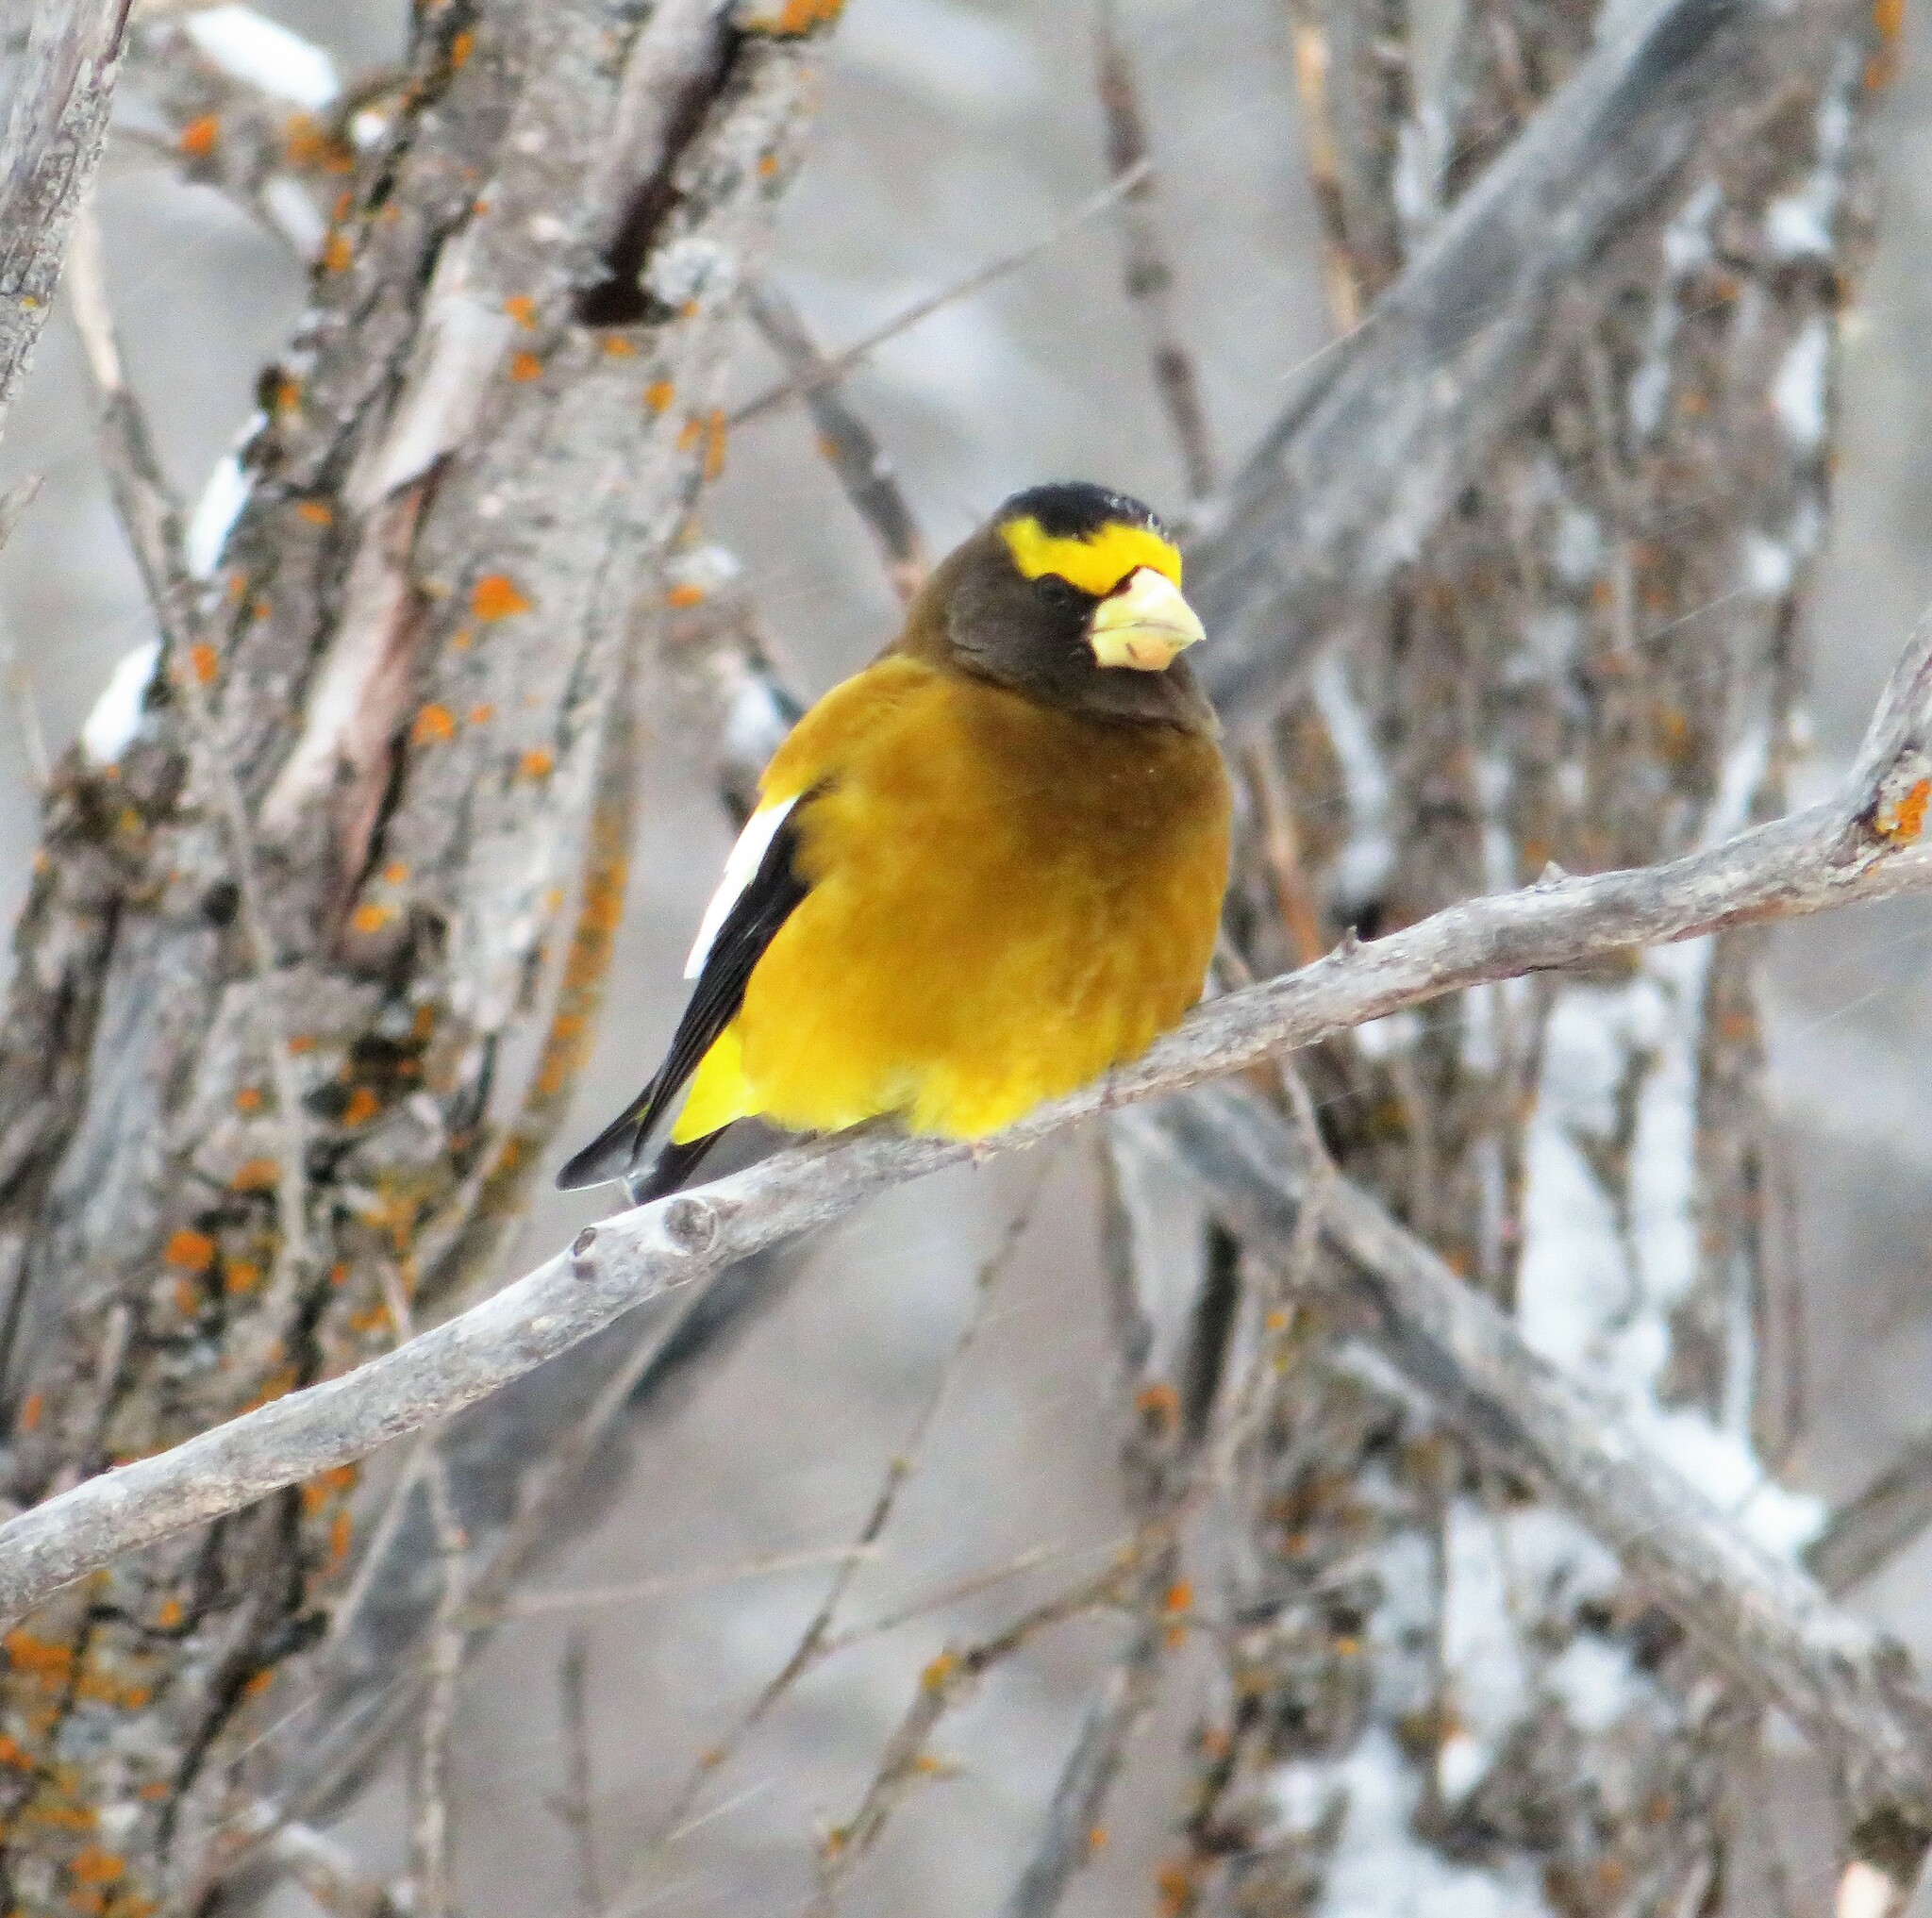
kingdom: Animalia
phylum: Chordata
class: Aves
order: Passeriformes
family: Fringillidae
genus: Hesperiphona
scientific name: Hesperiphona vespertina
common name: Evening grosbeak
